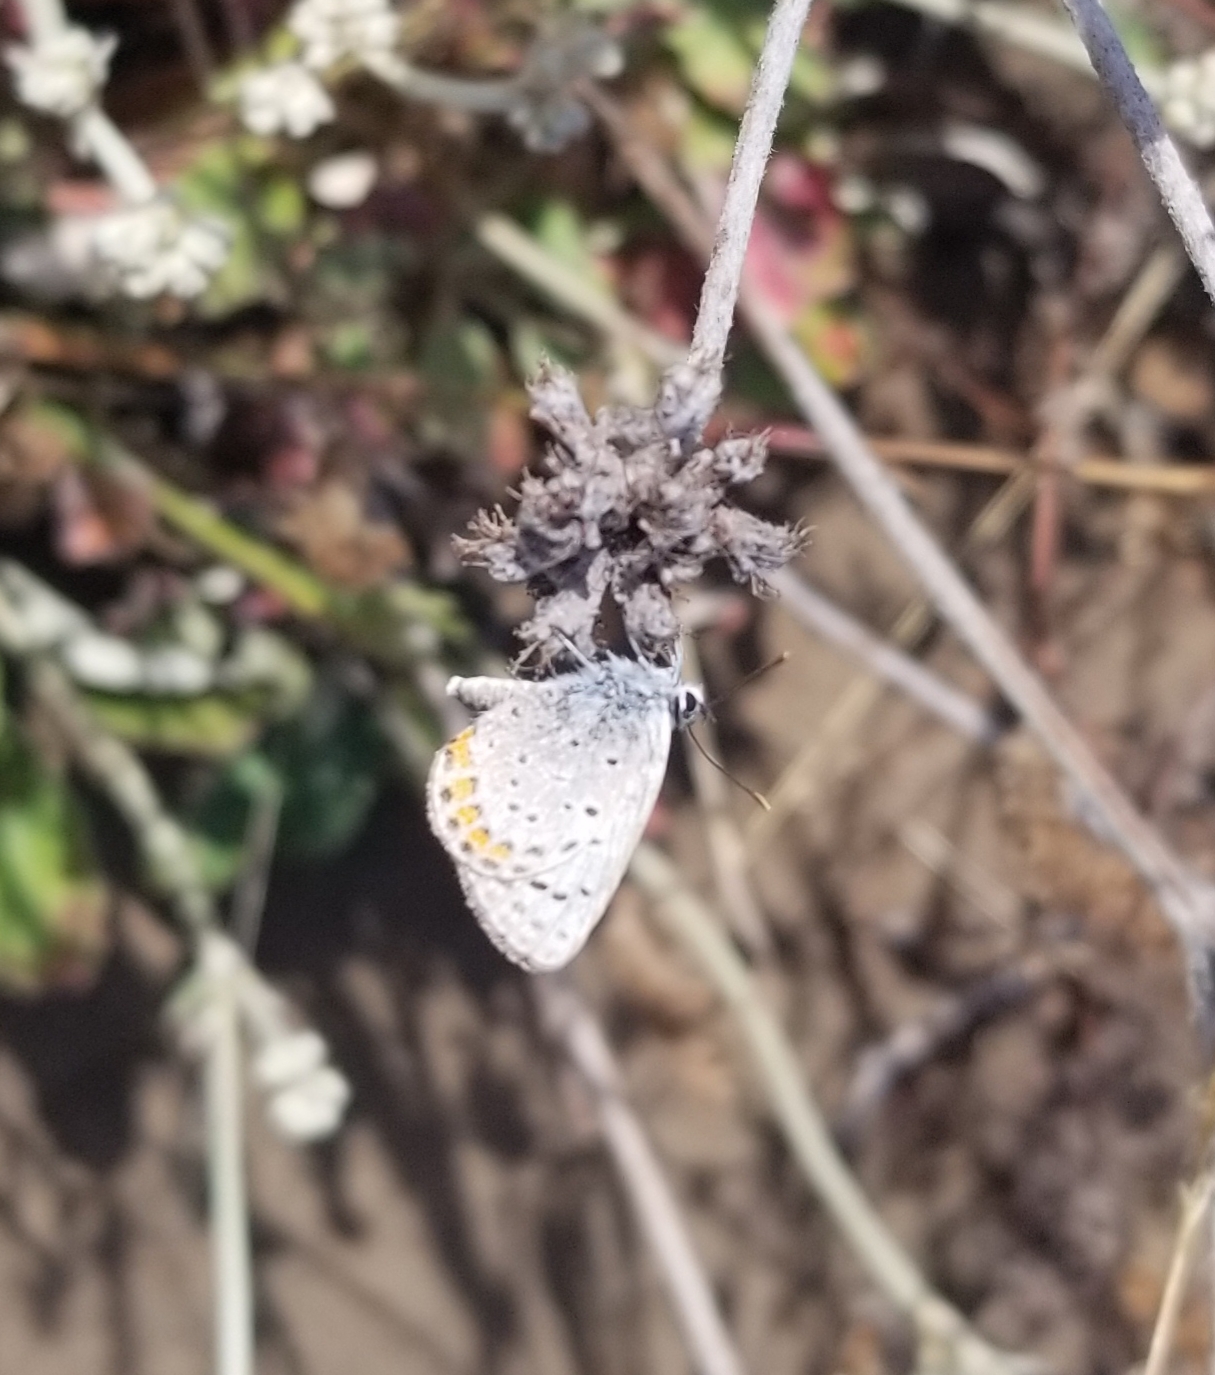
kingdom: Animalia
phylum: Arthropoda
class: Insecta
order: Lepidoptera
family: Lycaenidae
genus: Icaricia
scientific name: Icaricia acmon
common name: Acmon blue
